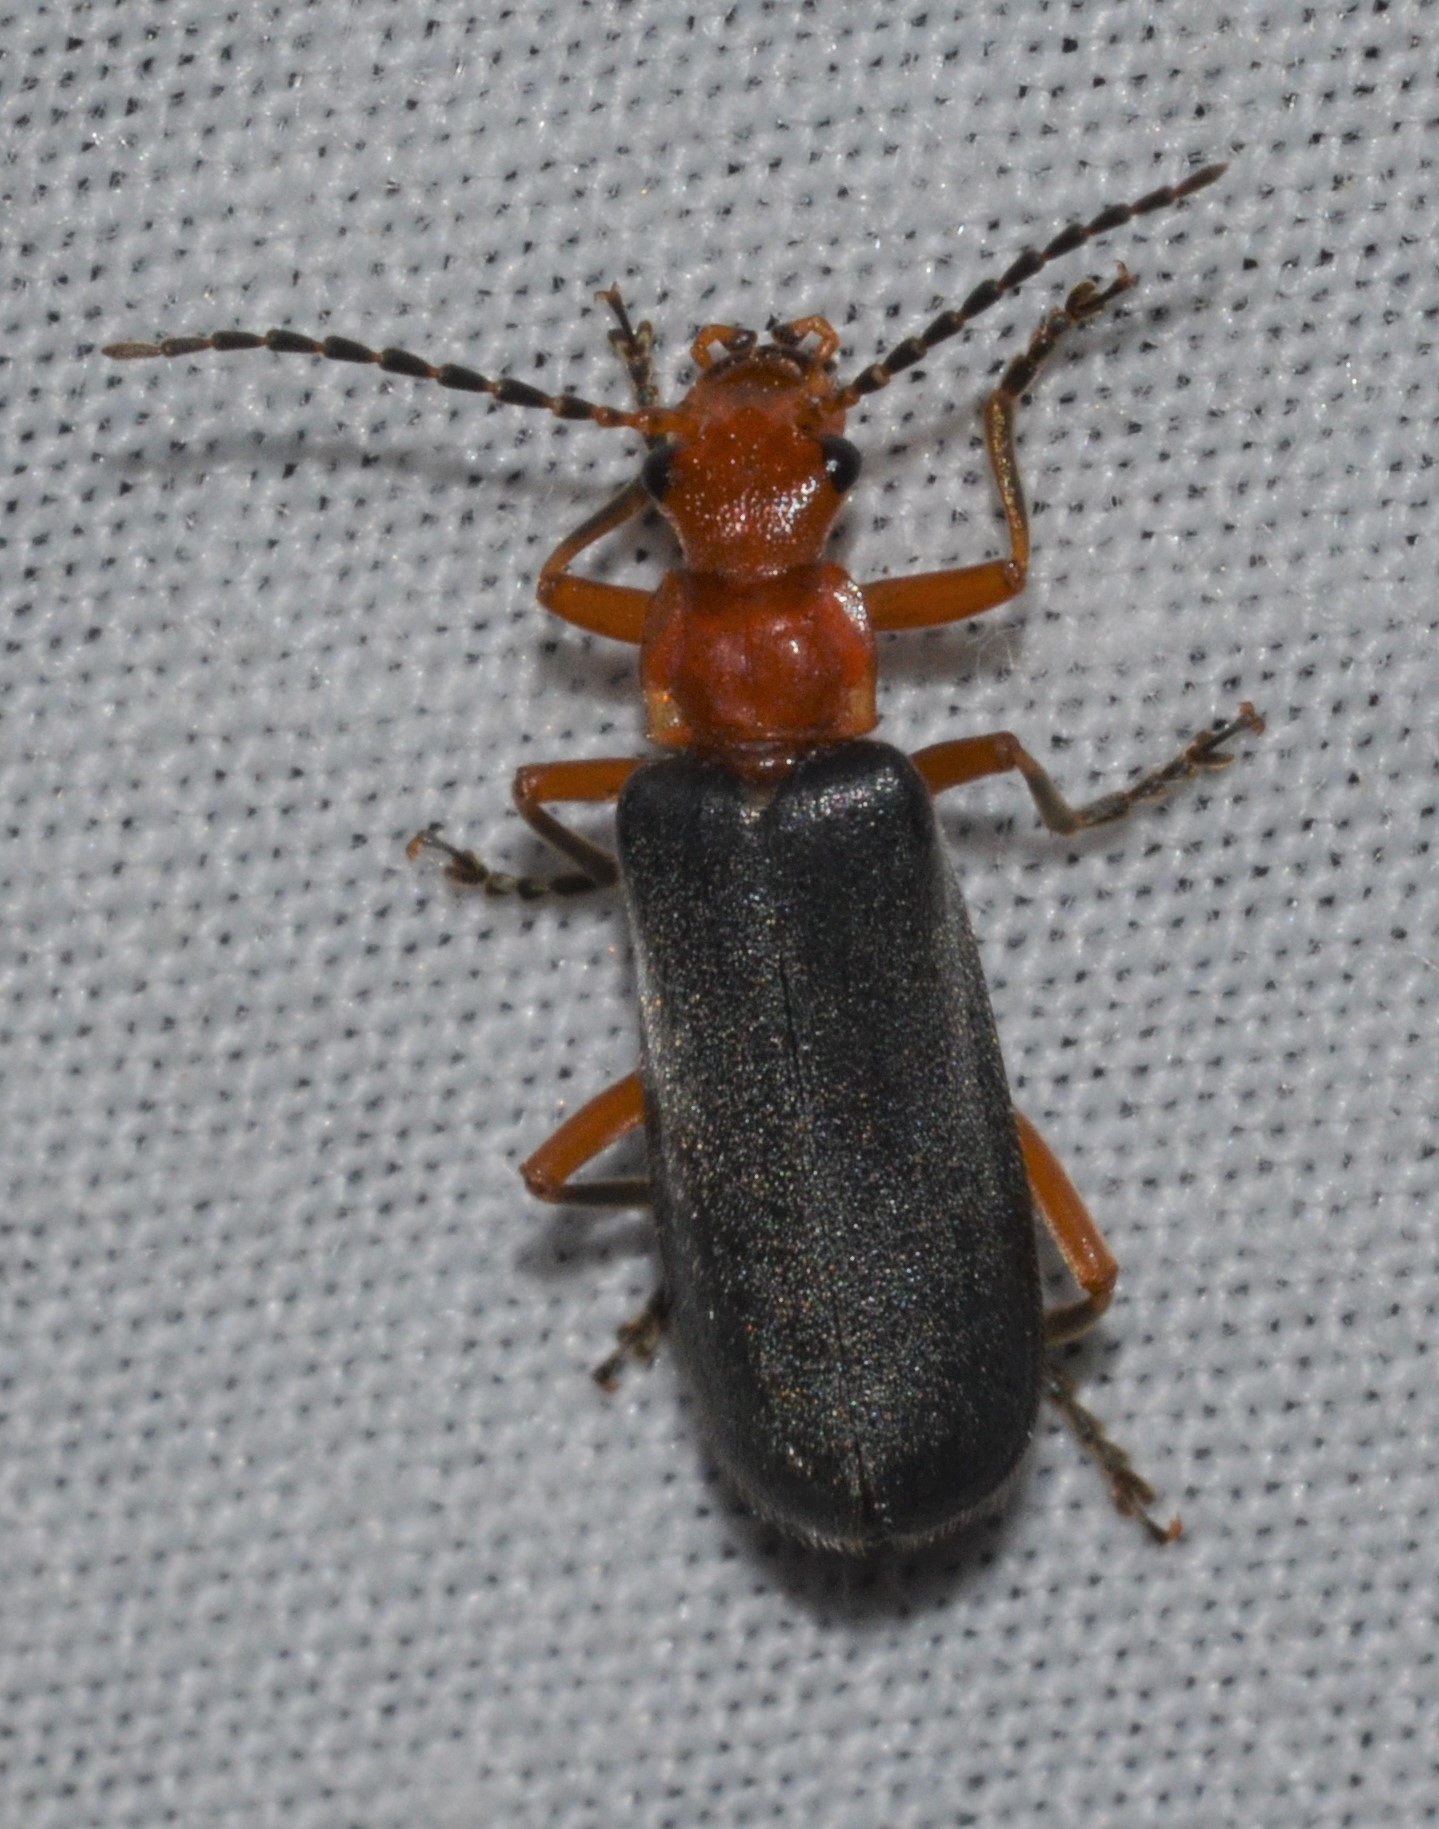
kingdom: Animalia
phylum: Arthropoda
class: Insecta
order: Coleoptera
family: Cantharidae
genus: Podabrus
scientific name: Podabrus tomentosus
